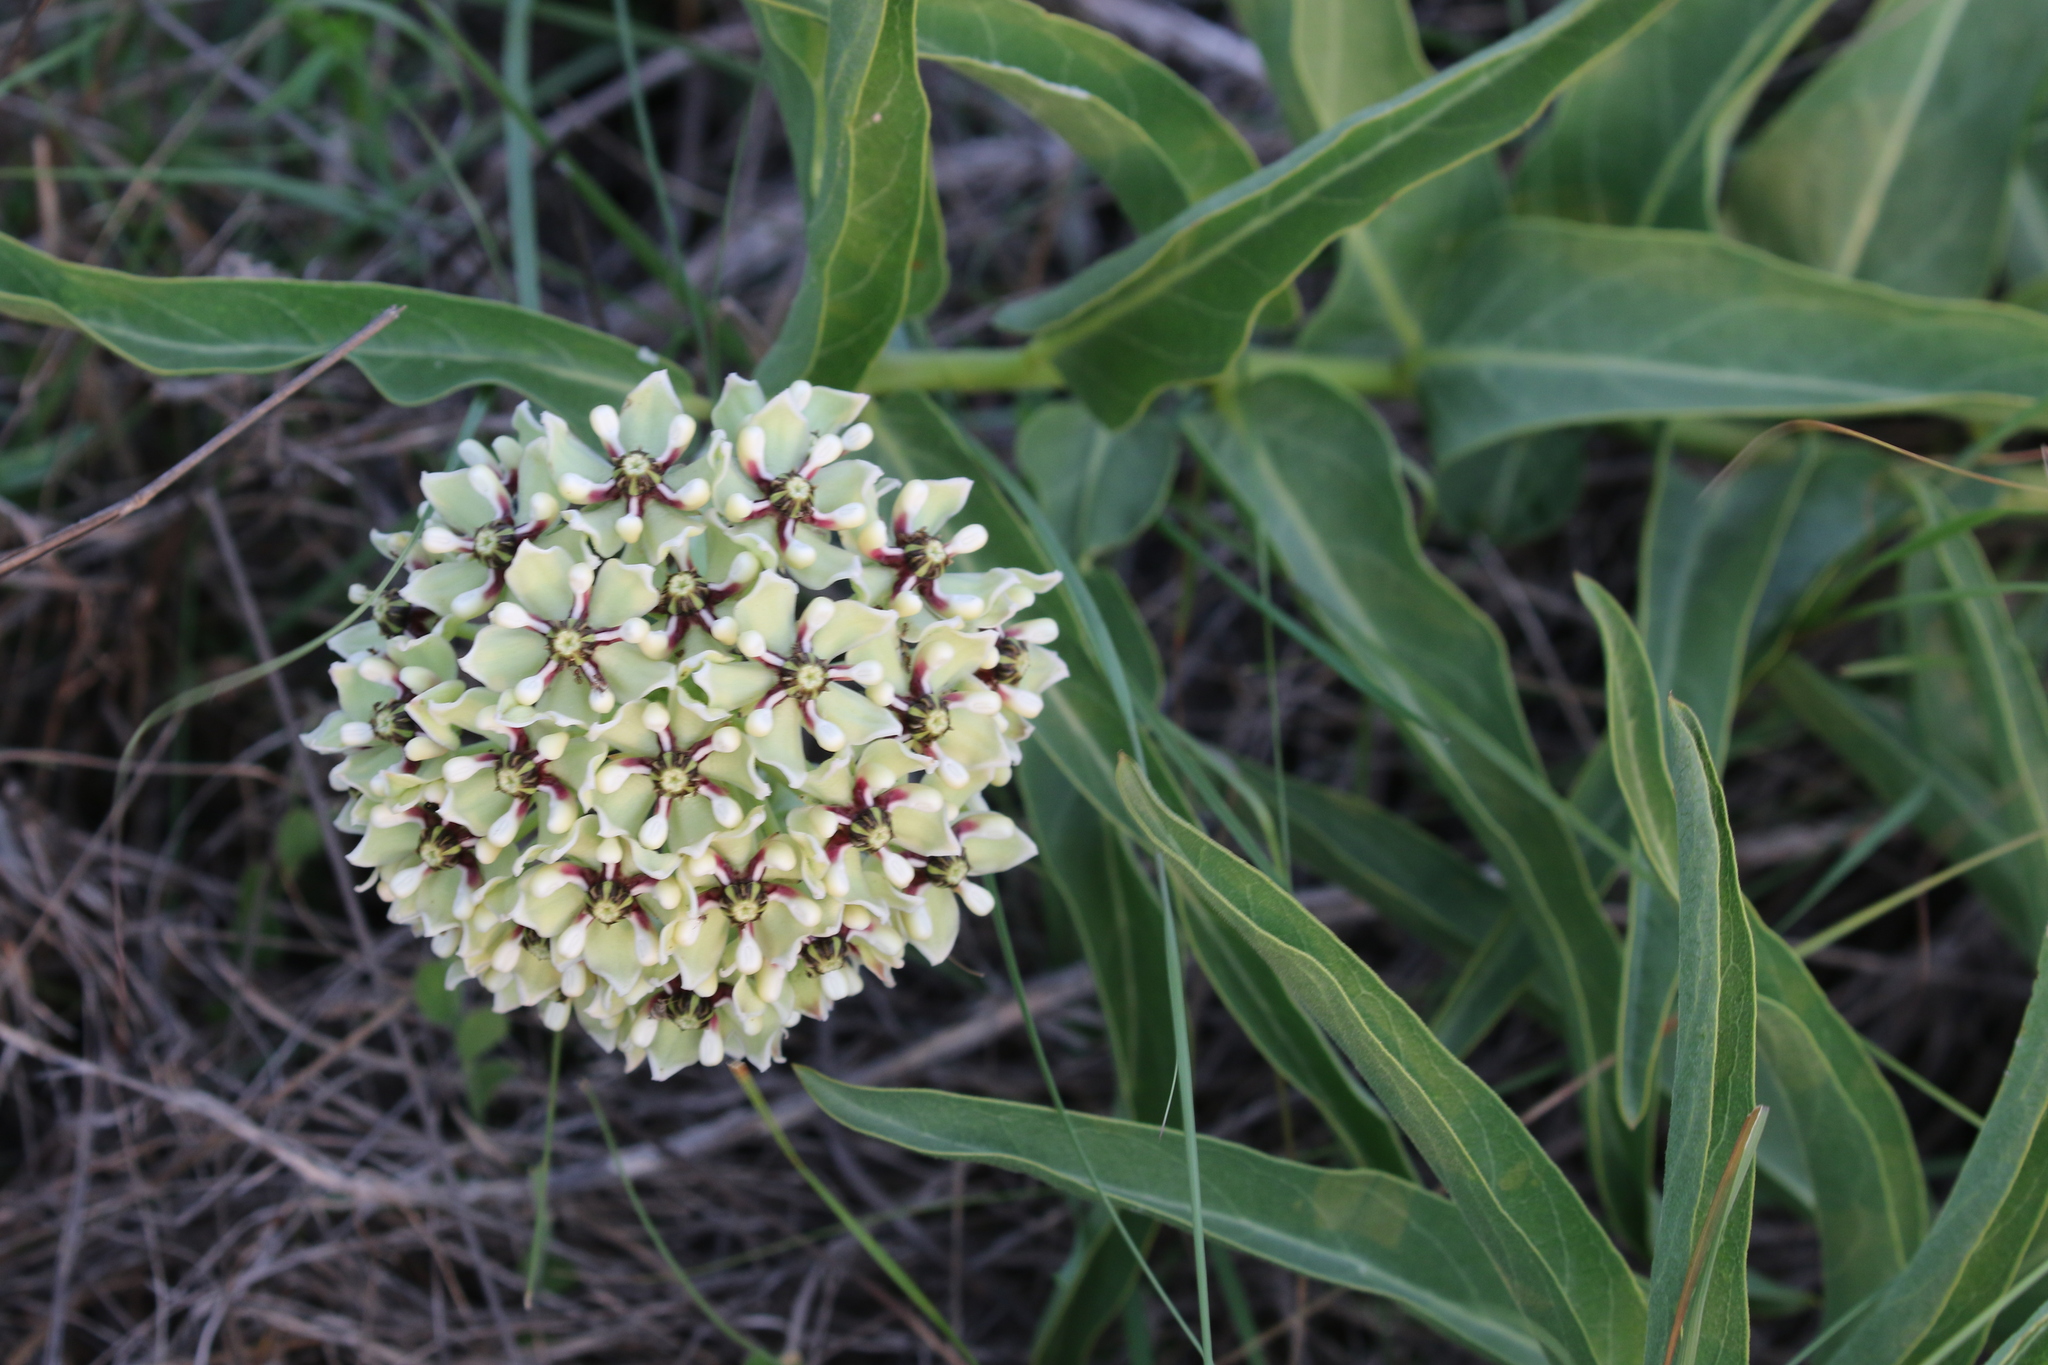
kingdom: Plantae
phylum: Tracheophyta
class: Magnoliopsida
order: Gentianales
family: Apocynaceae
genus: Asclepias
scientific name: Asclepias asperula
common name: Antelope horns
